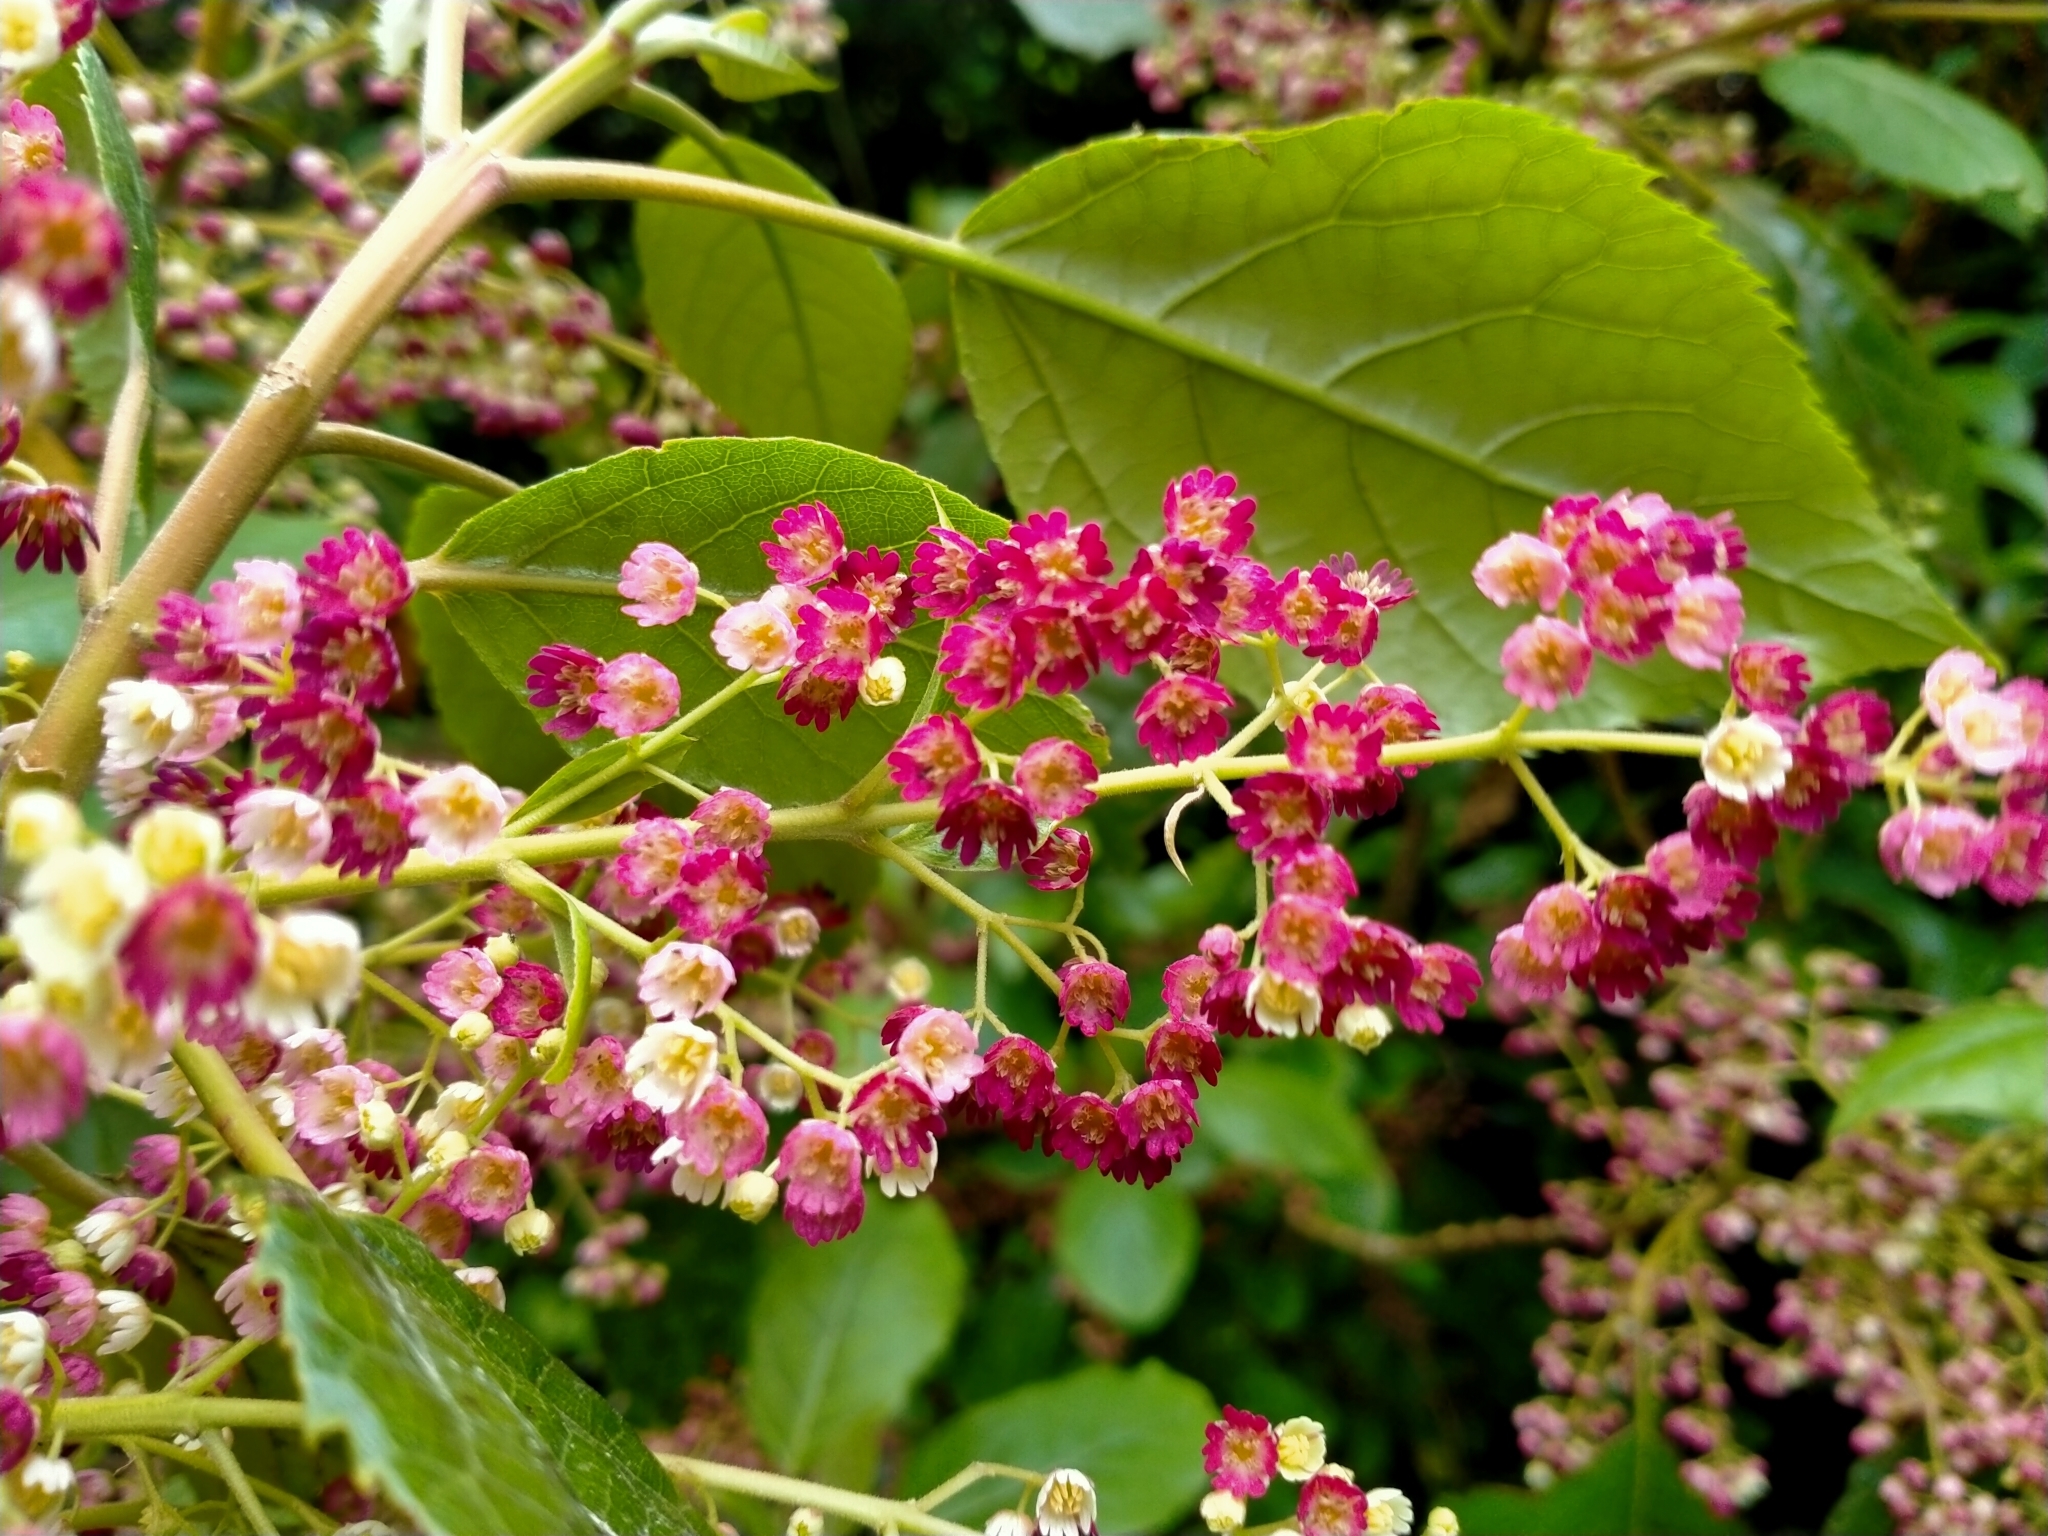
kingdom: Plantae
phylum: Tracheophyta
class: Magnoliopsida
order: Oxalidales
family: Elaeocarpaceae
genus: Aristotelia
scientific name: Aristotelia serrata
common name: New zealand wineberry
